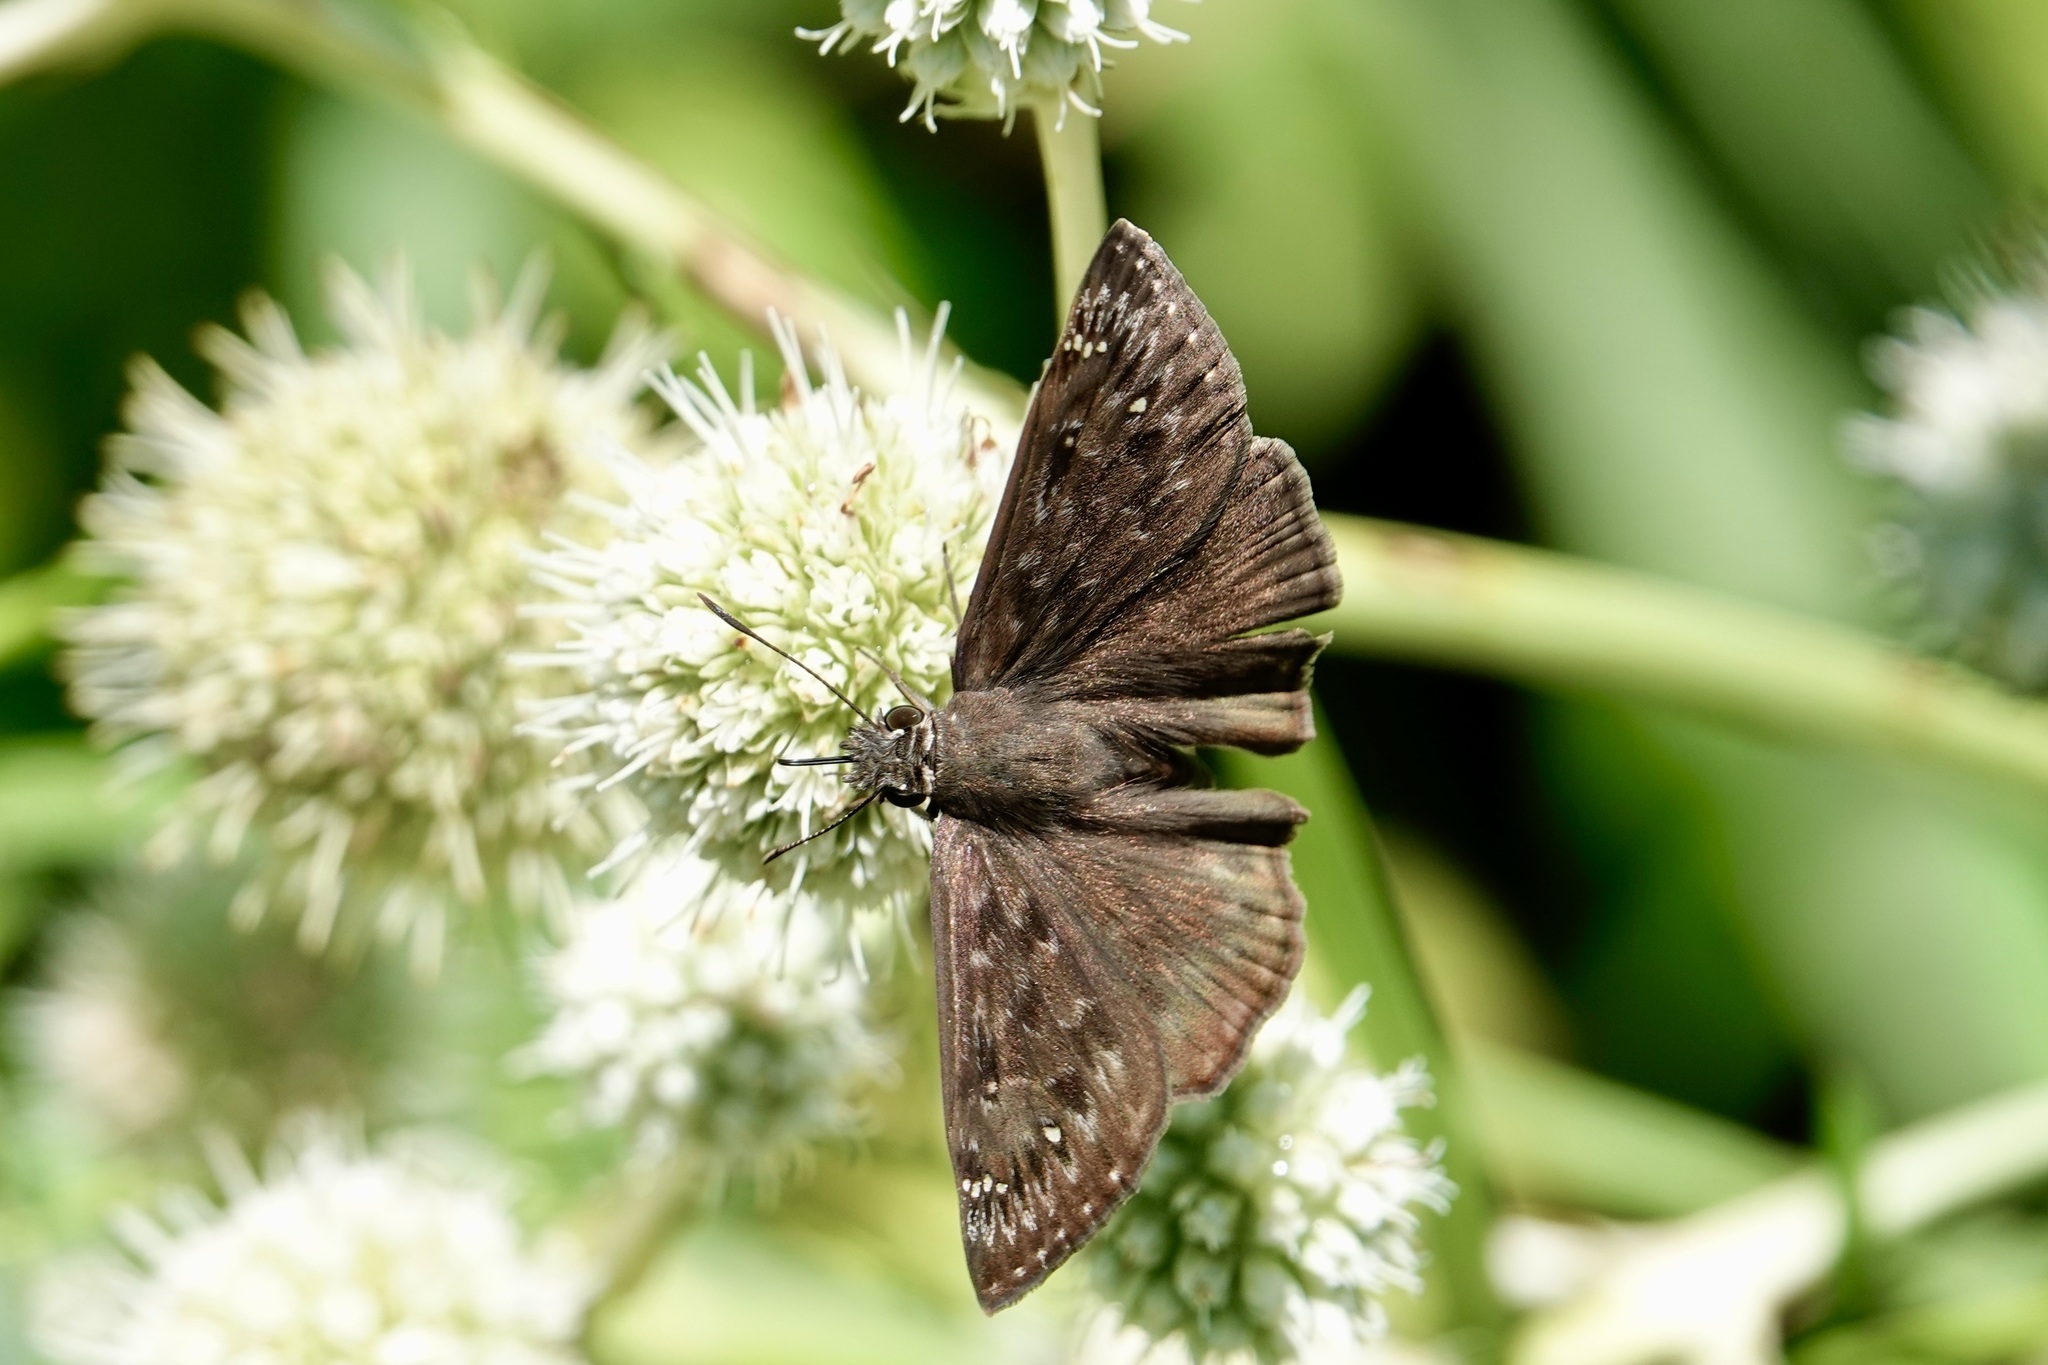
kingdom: Animalia
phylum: Arthropoda
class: Insecta
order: Lepidoptera
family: Hesperiidae
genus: Erynnis
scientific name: Erynnis horatius
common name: Horace's duskywing
